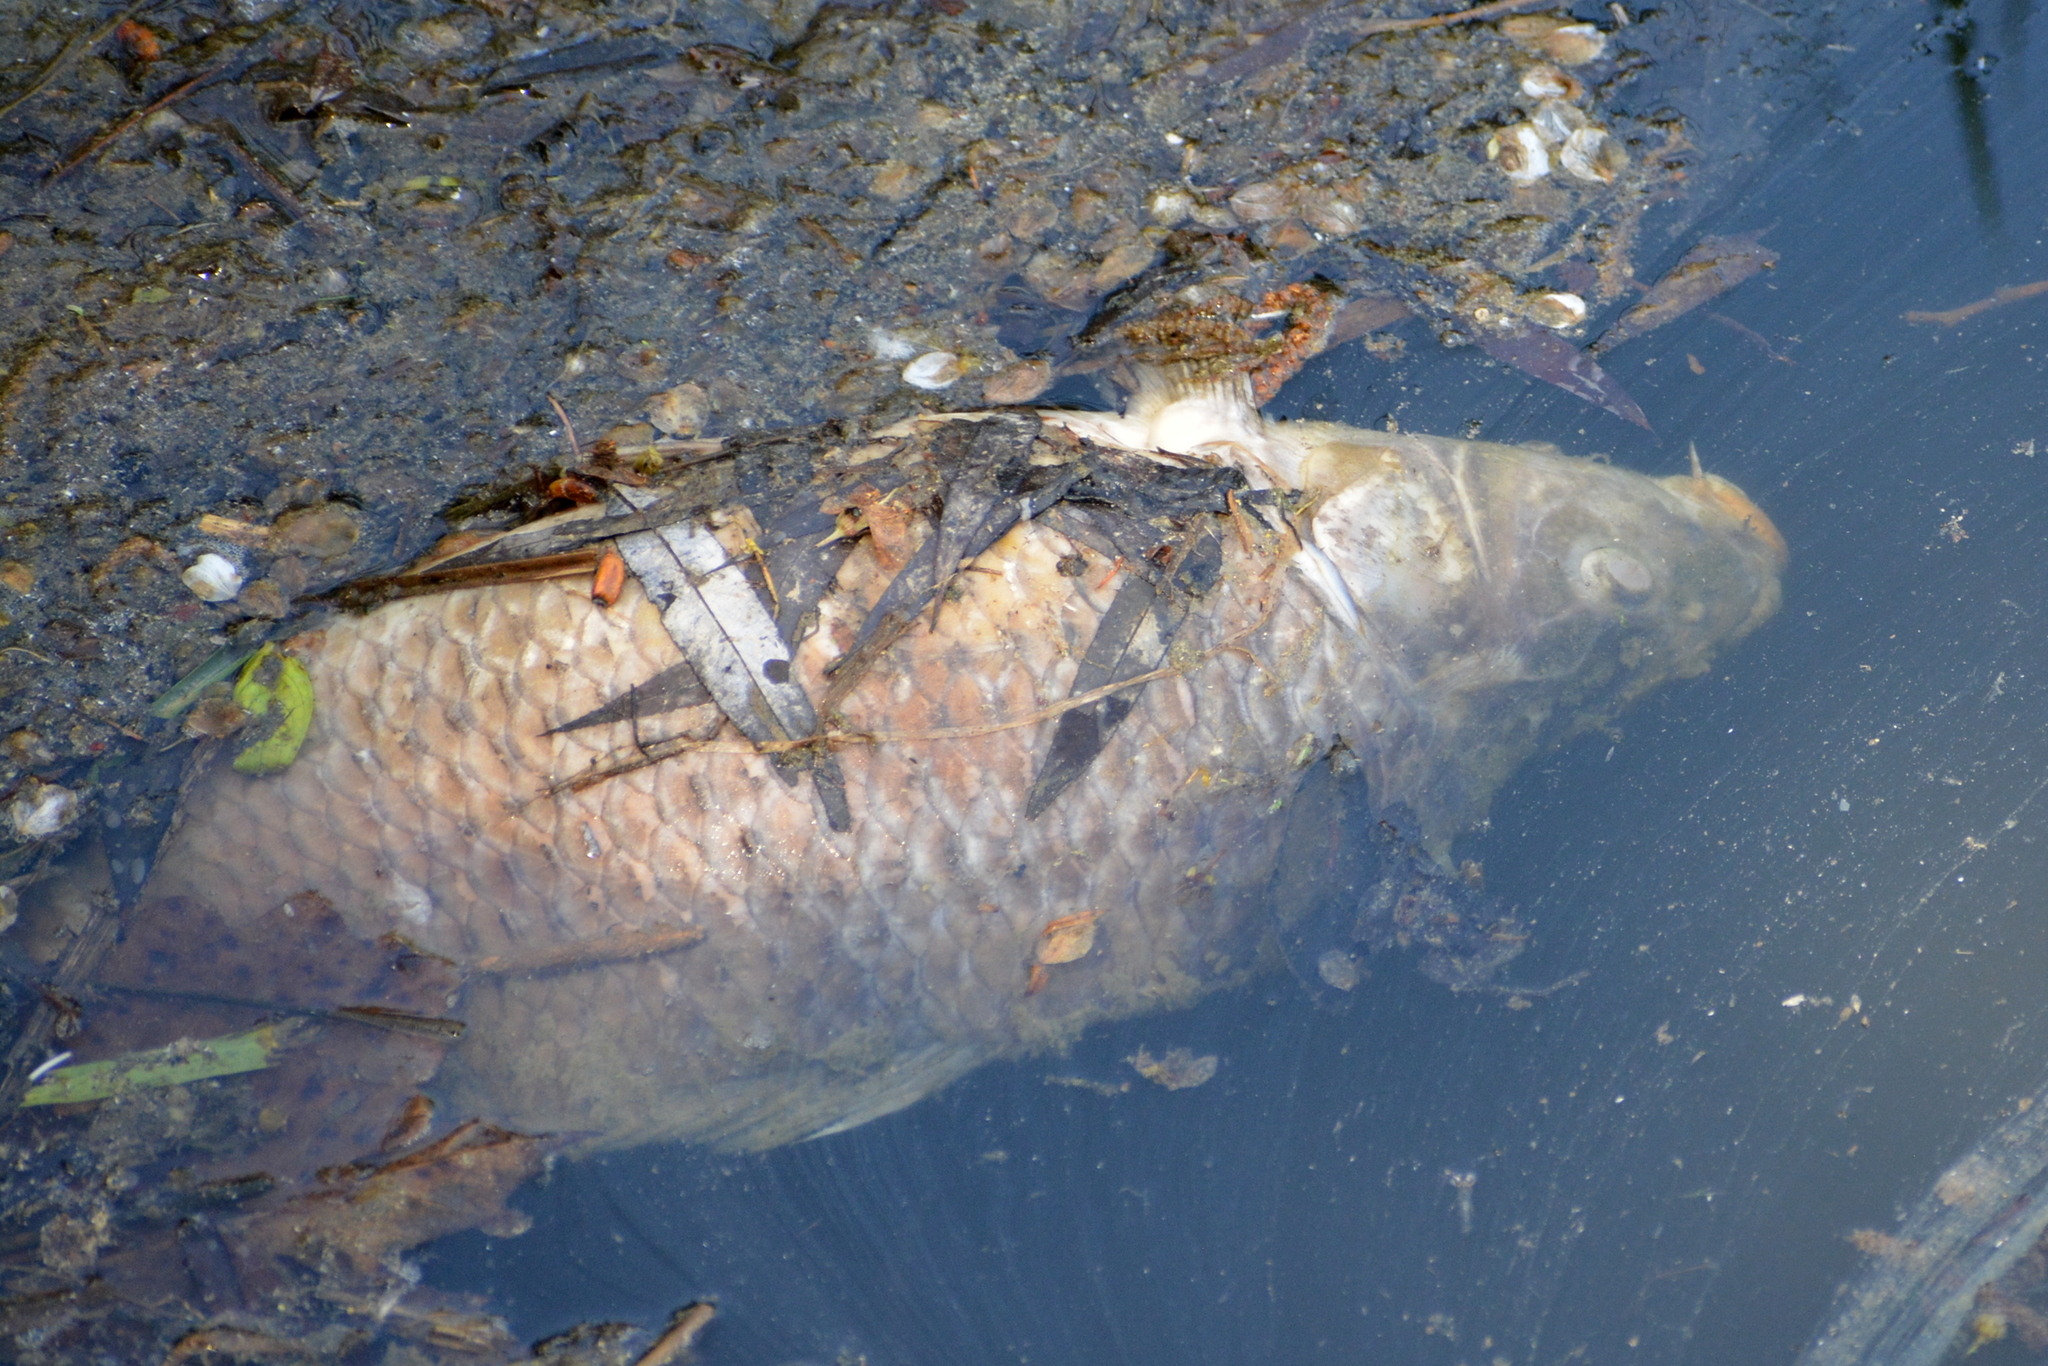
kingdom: Animalia
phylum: Chordata
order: Cypriniformes
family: Cyprinidae
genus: Cyprinus
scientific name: Cyprinus carpio
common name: Common carp
